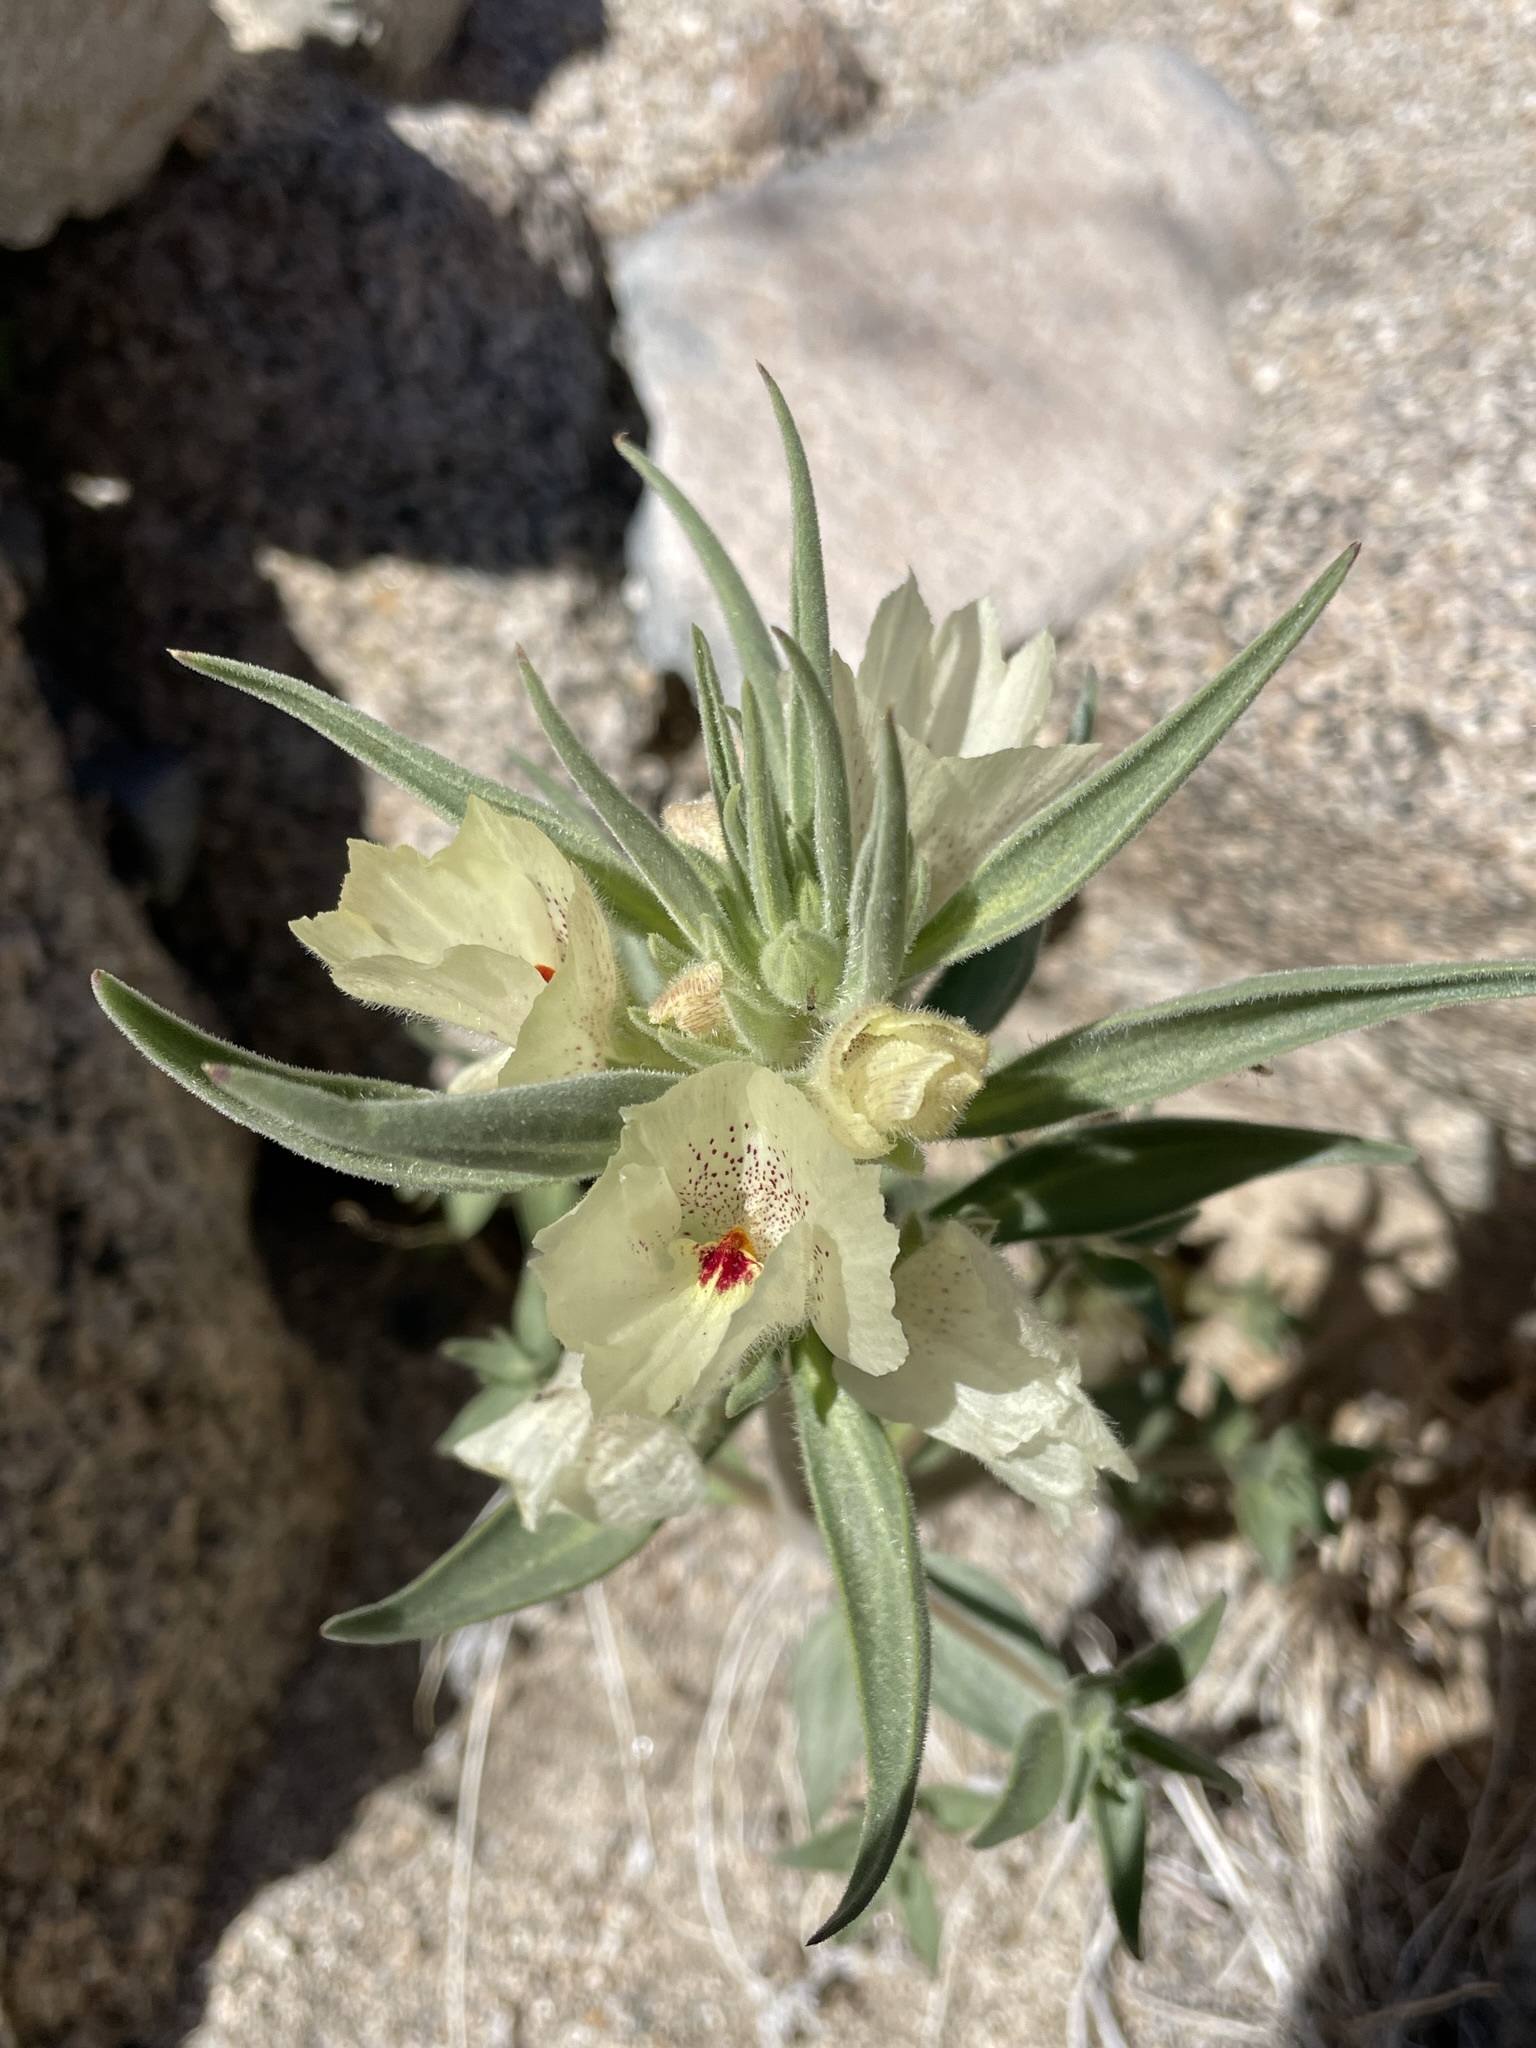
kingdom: Plantae
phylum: Tracheophyta
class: Magnoliopsida
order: Lamiales
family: Plantaginaceae
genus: Mohavea
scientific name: Mohavea confertiflora
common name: Ghost flower
